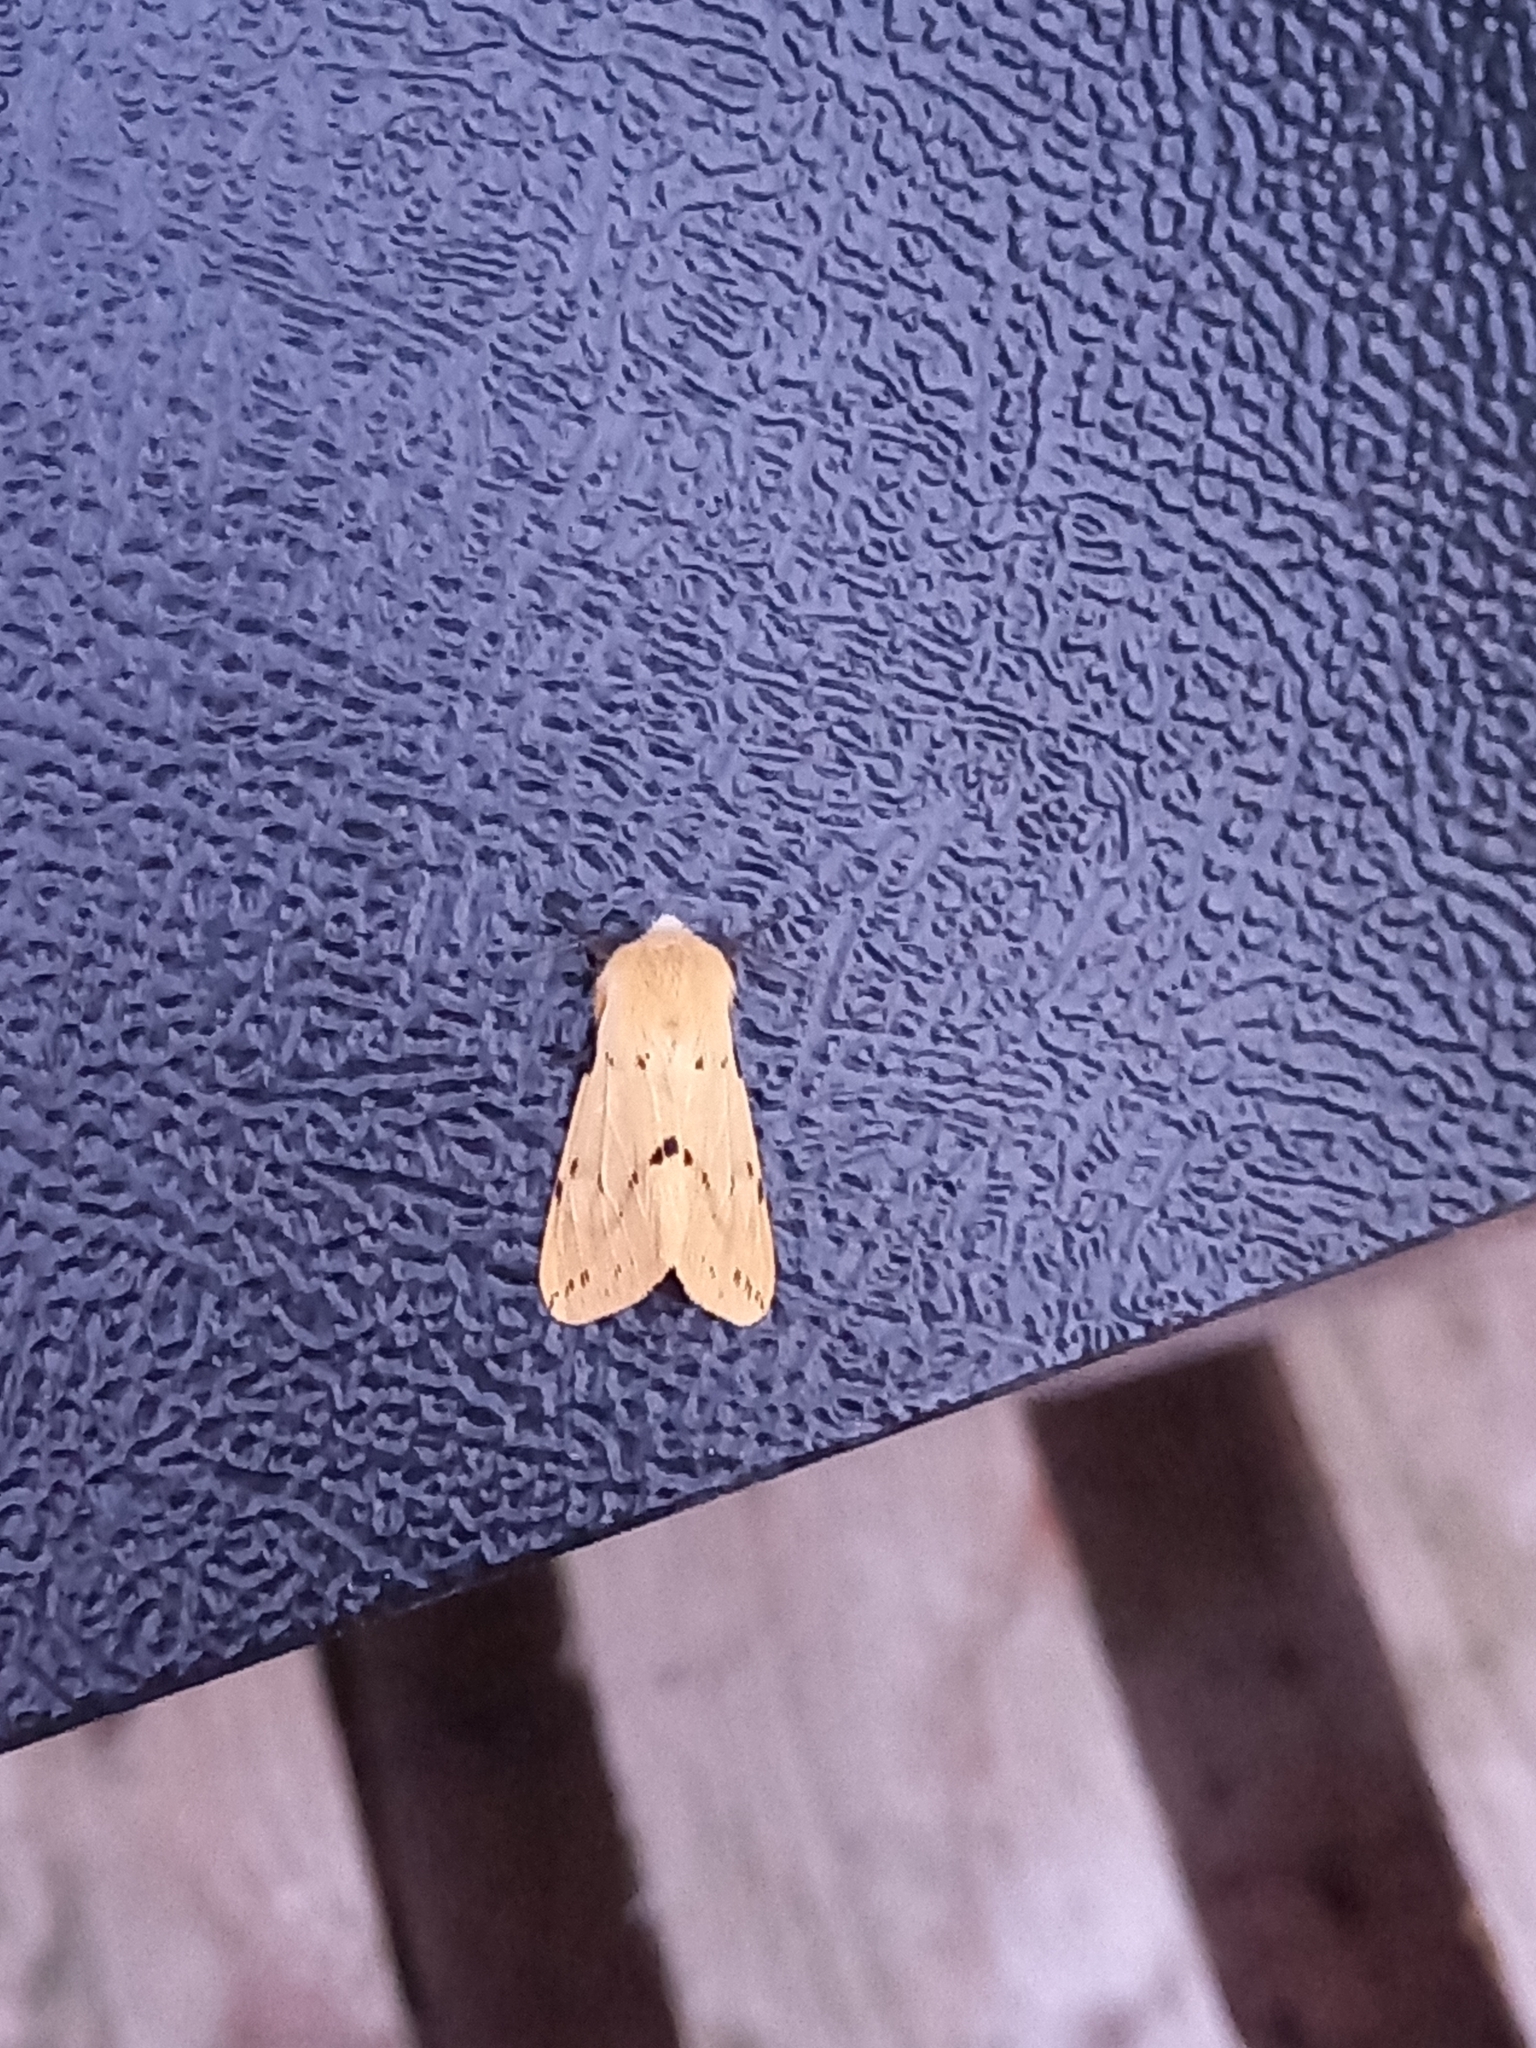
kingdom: Animalia
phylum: Arthropoda
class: Insecta
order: Lepidoptera
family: Erebidae
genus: Spilarctia
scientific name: Spilarctia lutea
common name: Buff ermine
